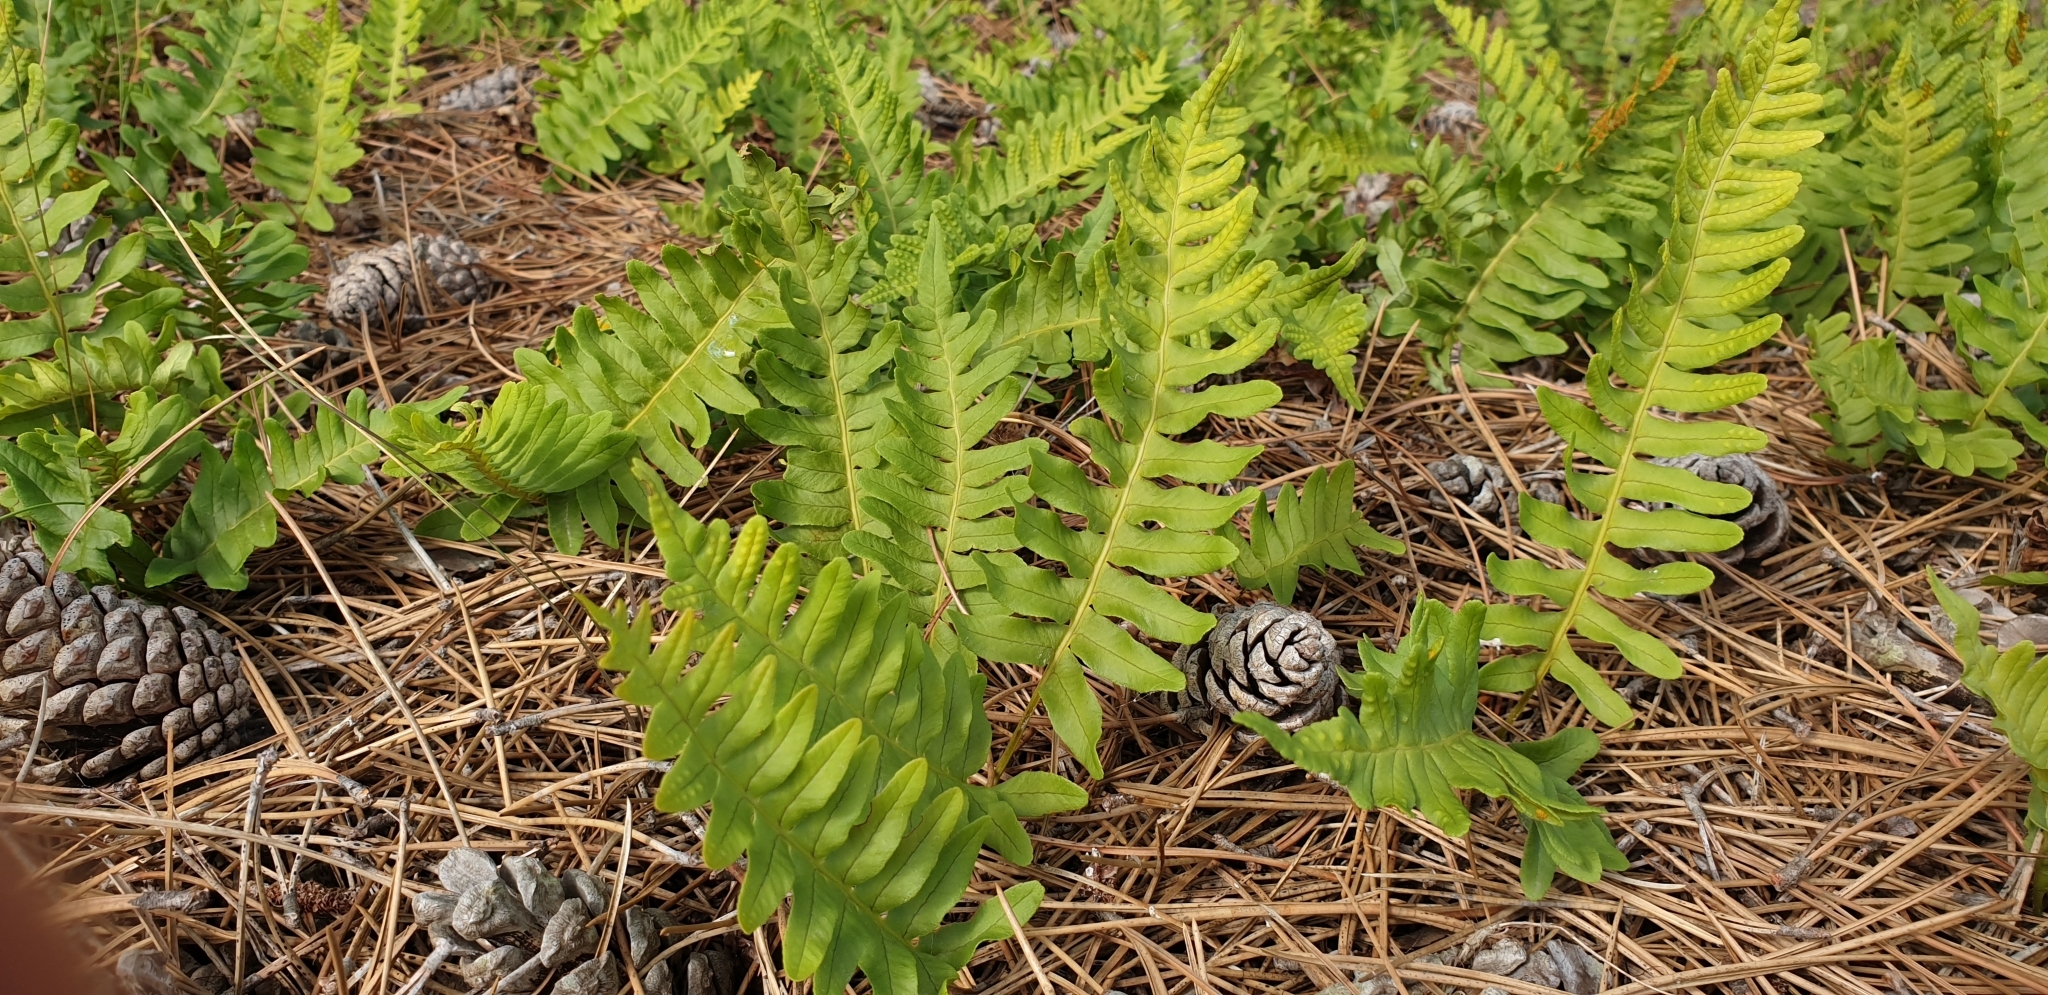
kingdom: Plantae
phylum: Tracheophyta
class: Polypodiopsida
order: Polypodiales
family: Polypodiaceae
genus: Polypodium
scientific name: Polypodium vulgare
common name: Common polypody
